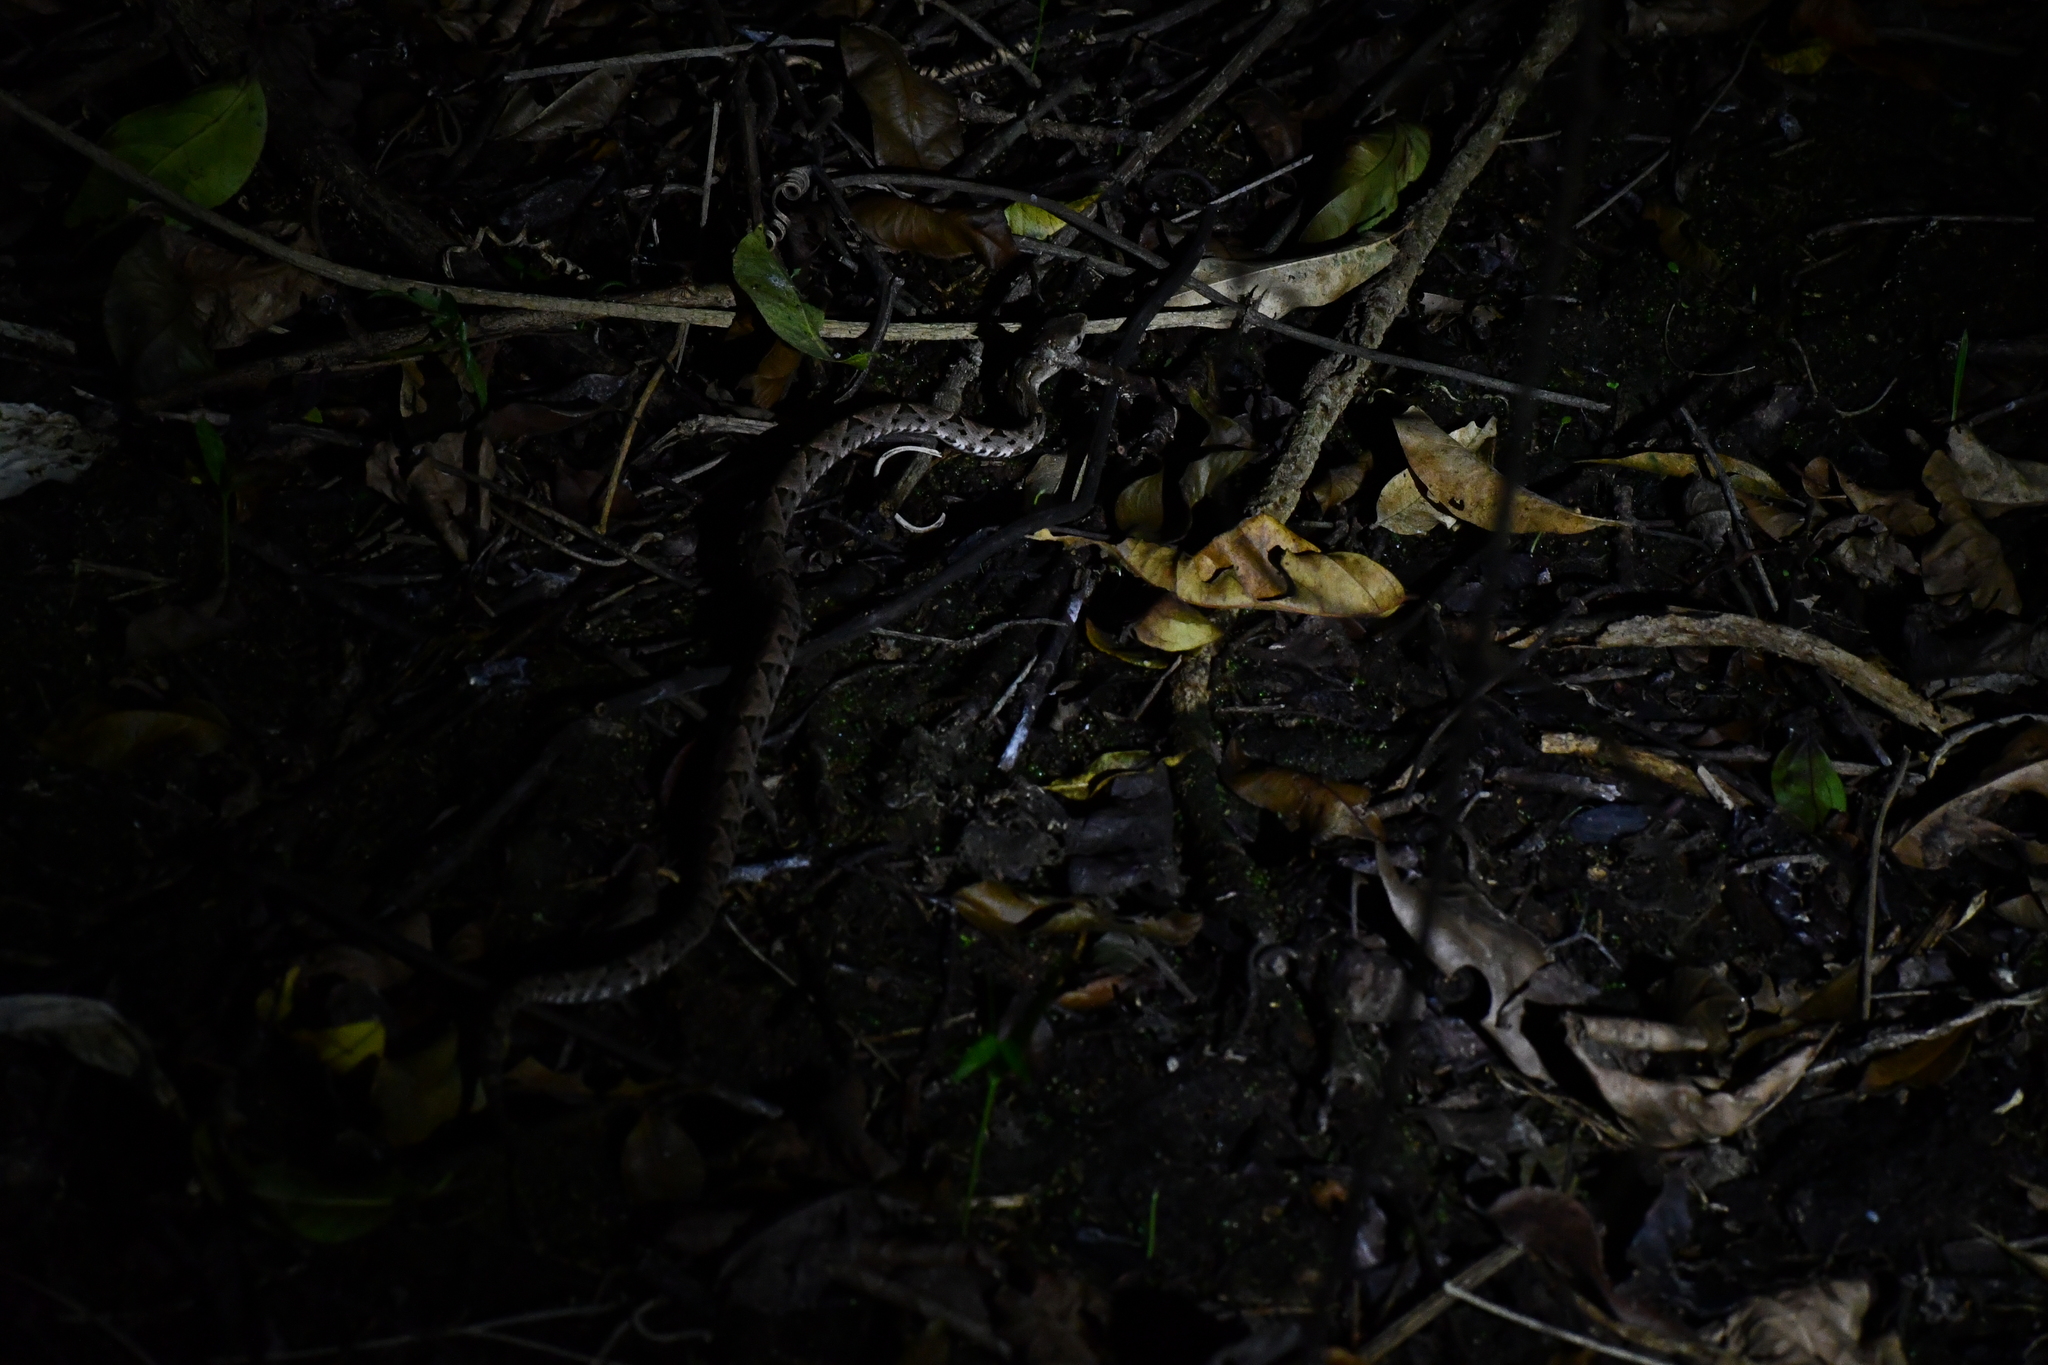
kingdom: Animalia
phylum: Chordata
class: Squamata
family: Viperidae
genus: Bothrops
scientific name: Bothrops asper
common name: Terciopelo
